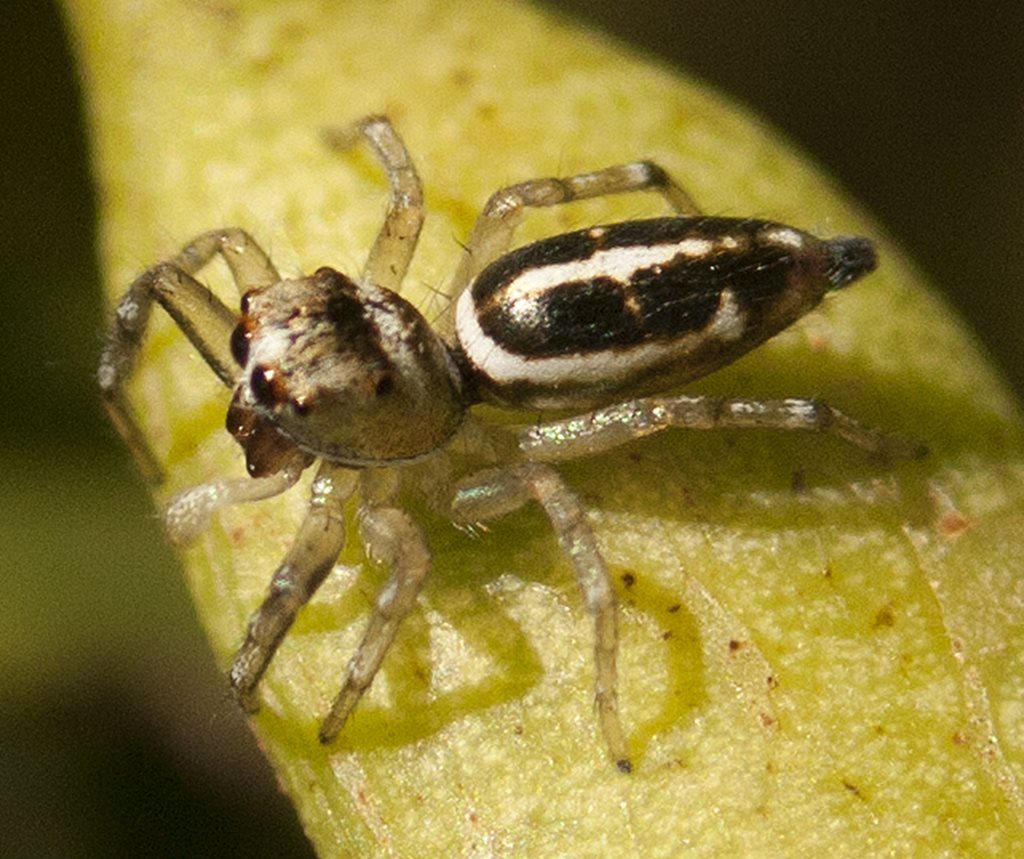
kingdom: Animalia
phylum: Arthropoda
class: Arachnida
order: Araneae
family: Salticidae
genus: Cosmophasis
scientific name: Cosmophasis baehrae
